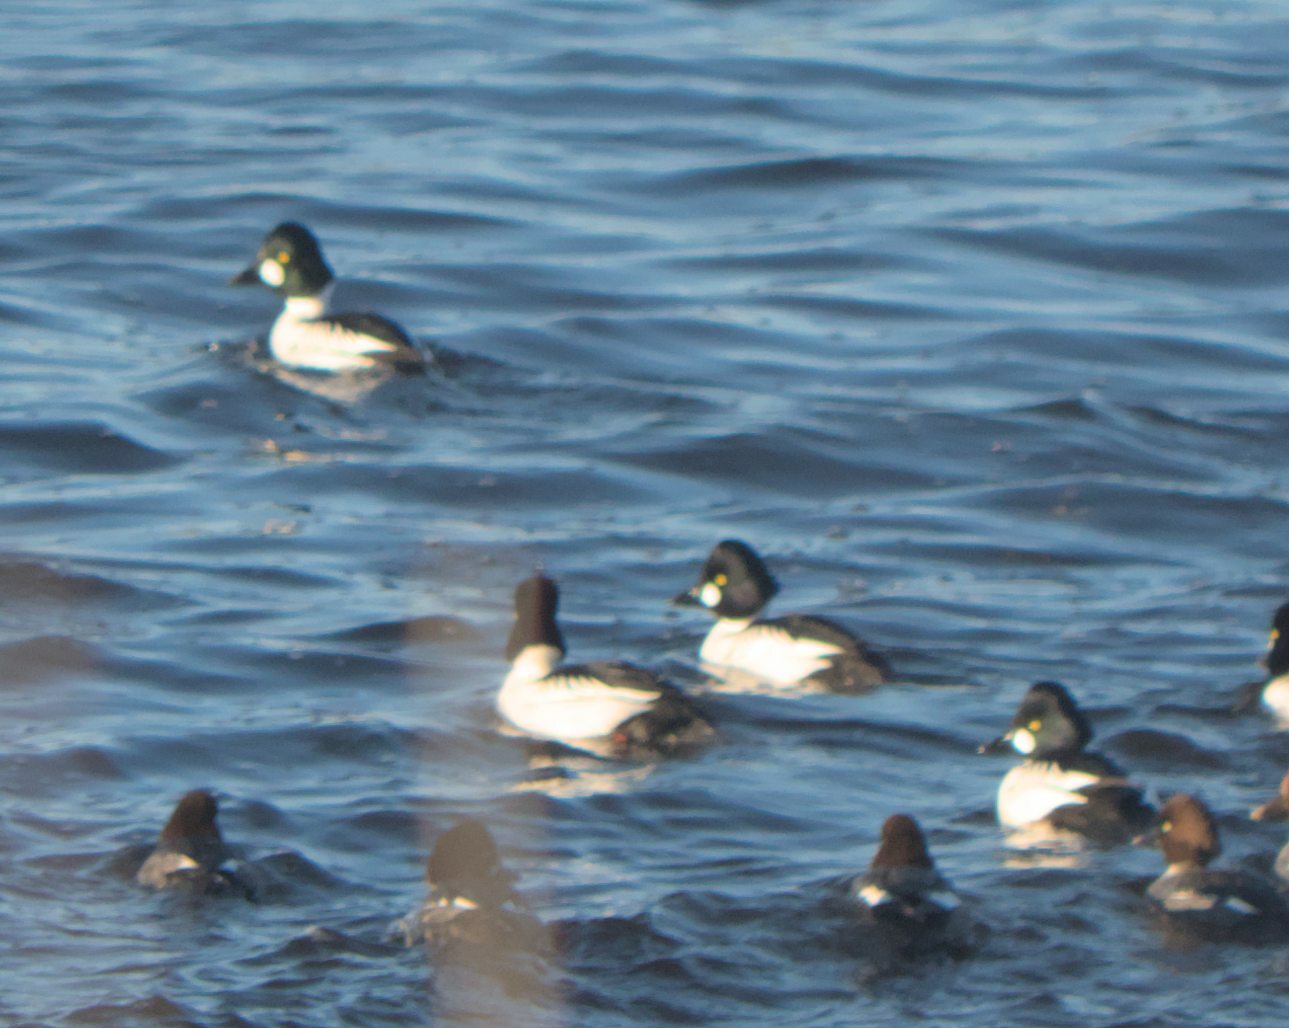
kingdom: Animalia
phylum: Chordata
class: Aves
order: Anseriformes
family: Anatidae
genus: Bucephala
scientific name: Bucephala clangula
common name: Common goldeneye
